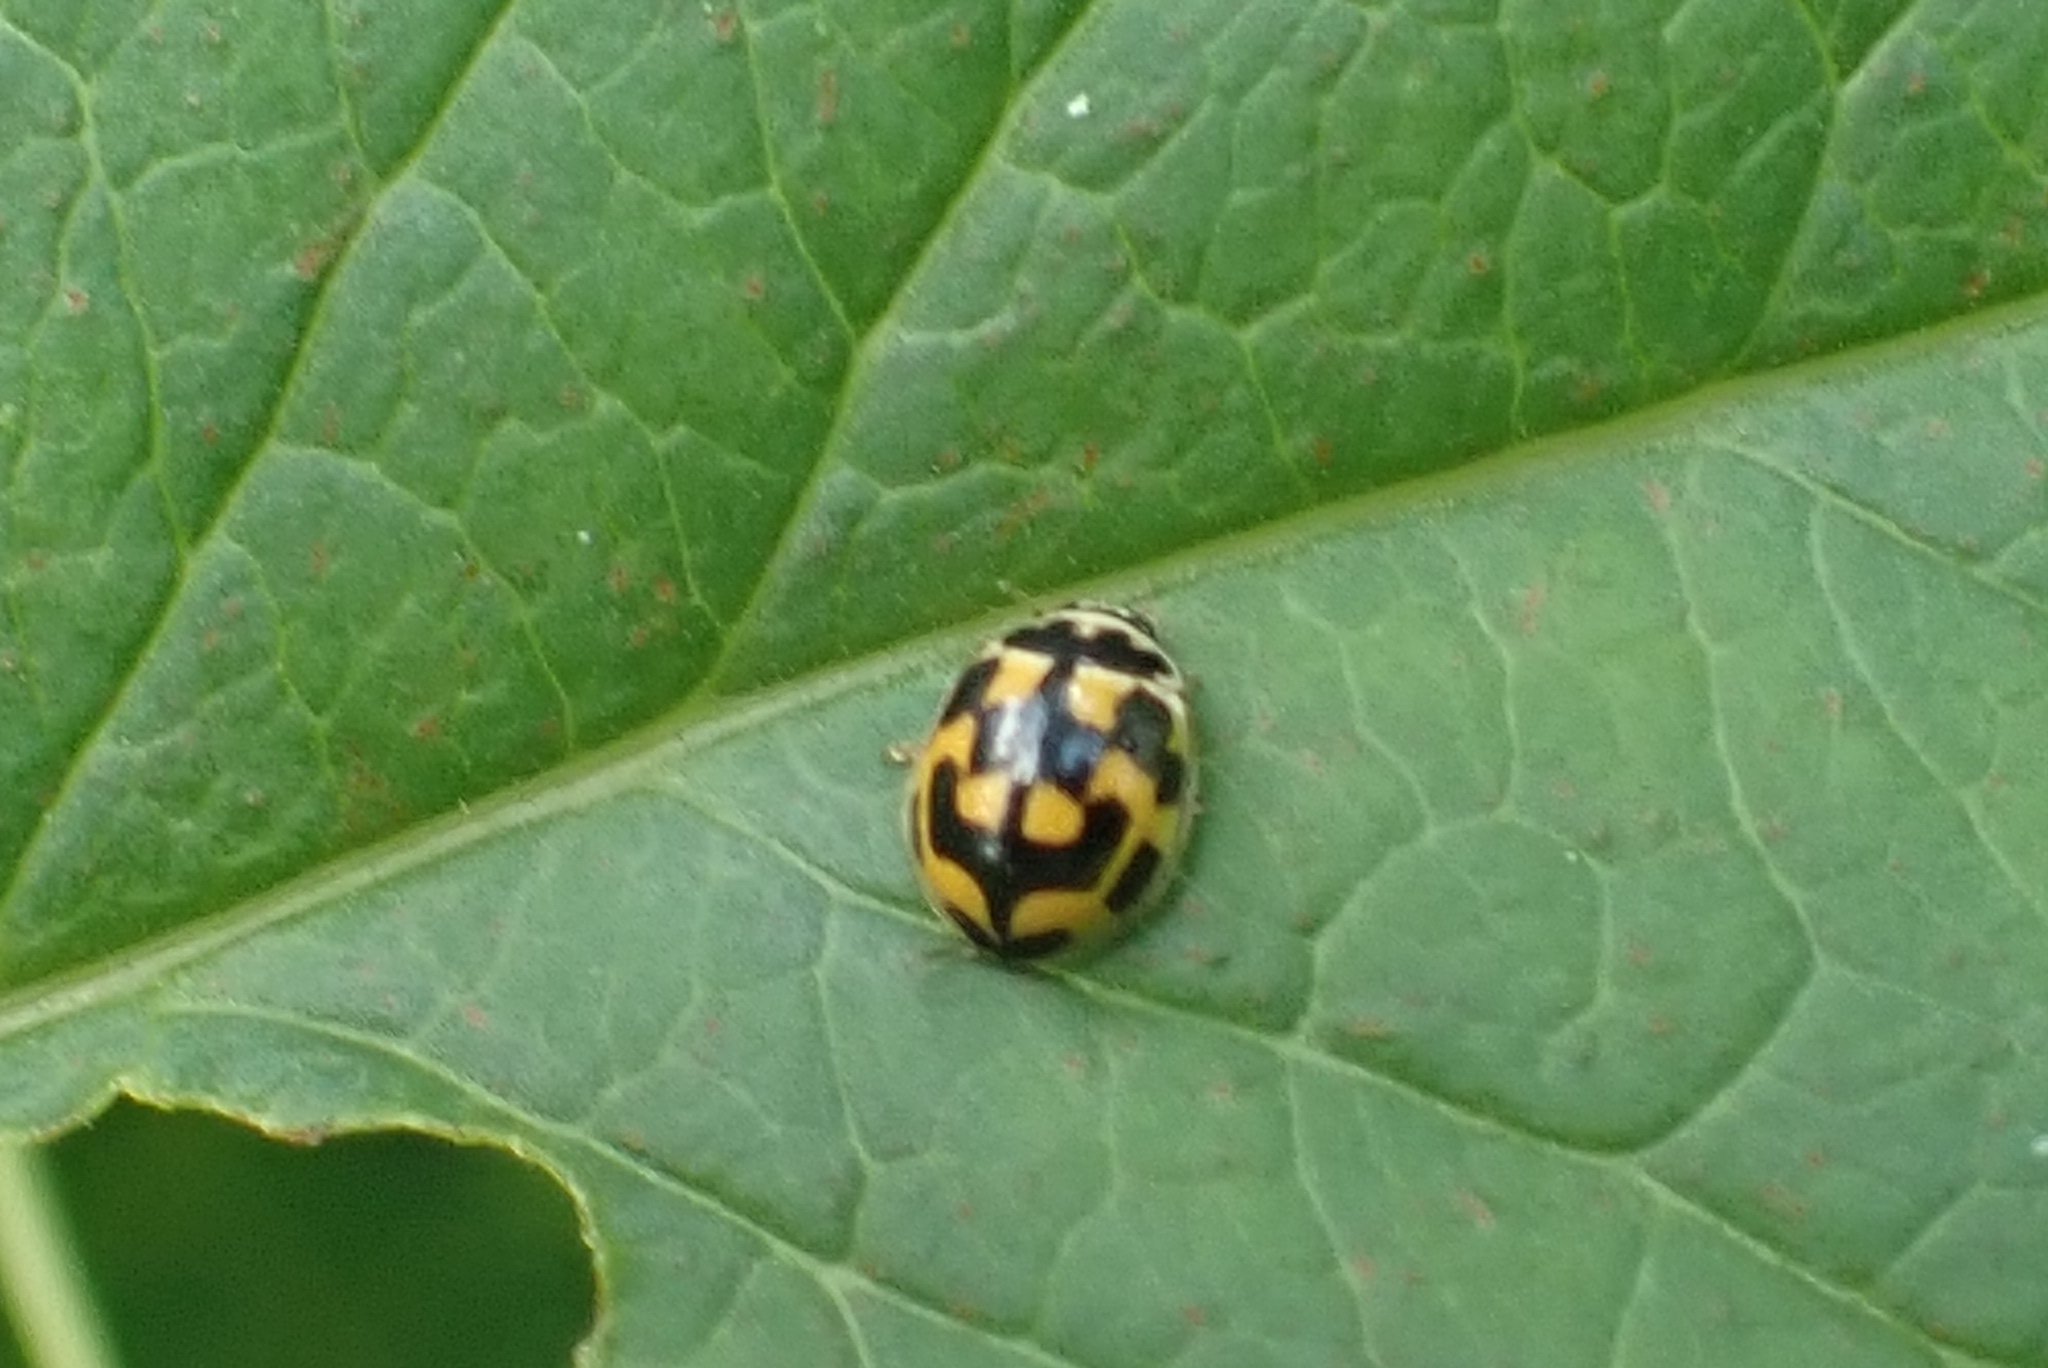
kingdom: Animalia
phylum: Arthropoda
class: Insecta
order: Coleoptera
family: Coccinellidae
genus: Propylaea
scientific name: Propylaea quatuordecimpunctata
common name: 14-spotted ladybird beetle
